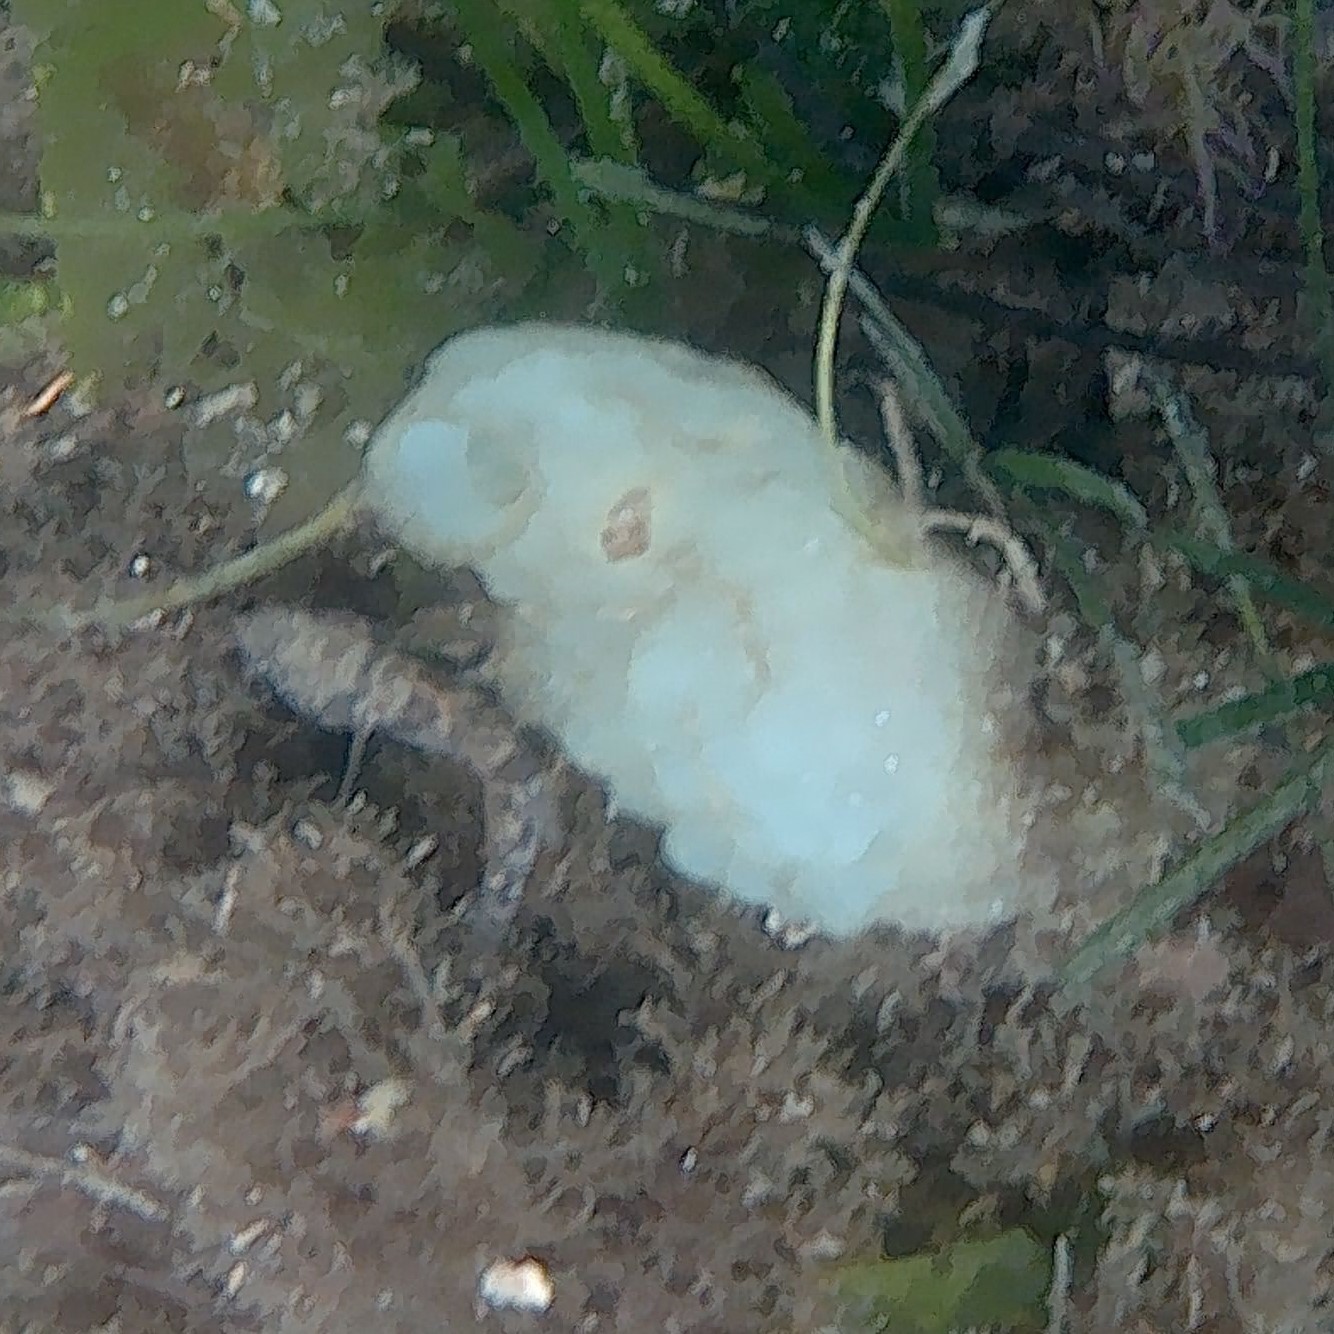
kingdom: Animalia
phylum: Chordata
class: Ascidiacea
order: Phlebobranchia
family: Ascidiidae
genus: Phallusia
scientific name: Phallusia mammillata
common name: Neptune's heart sea squirt
